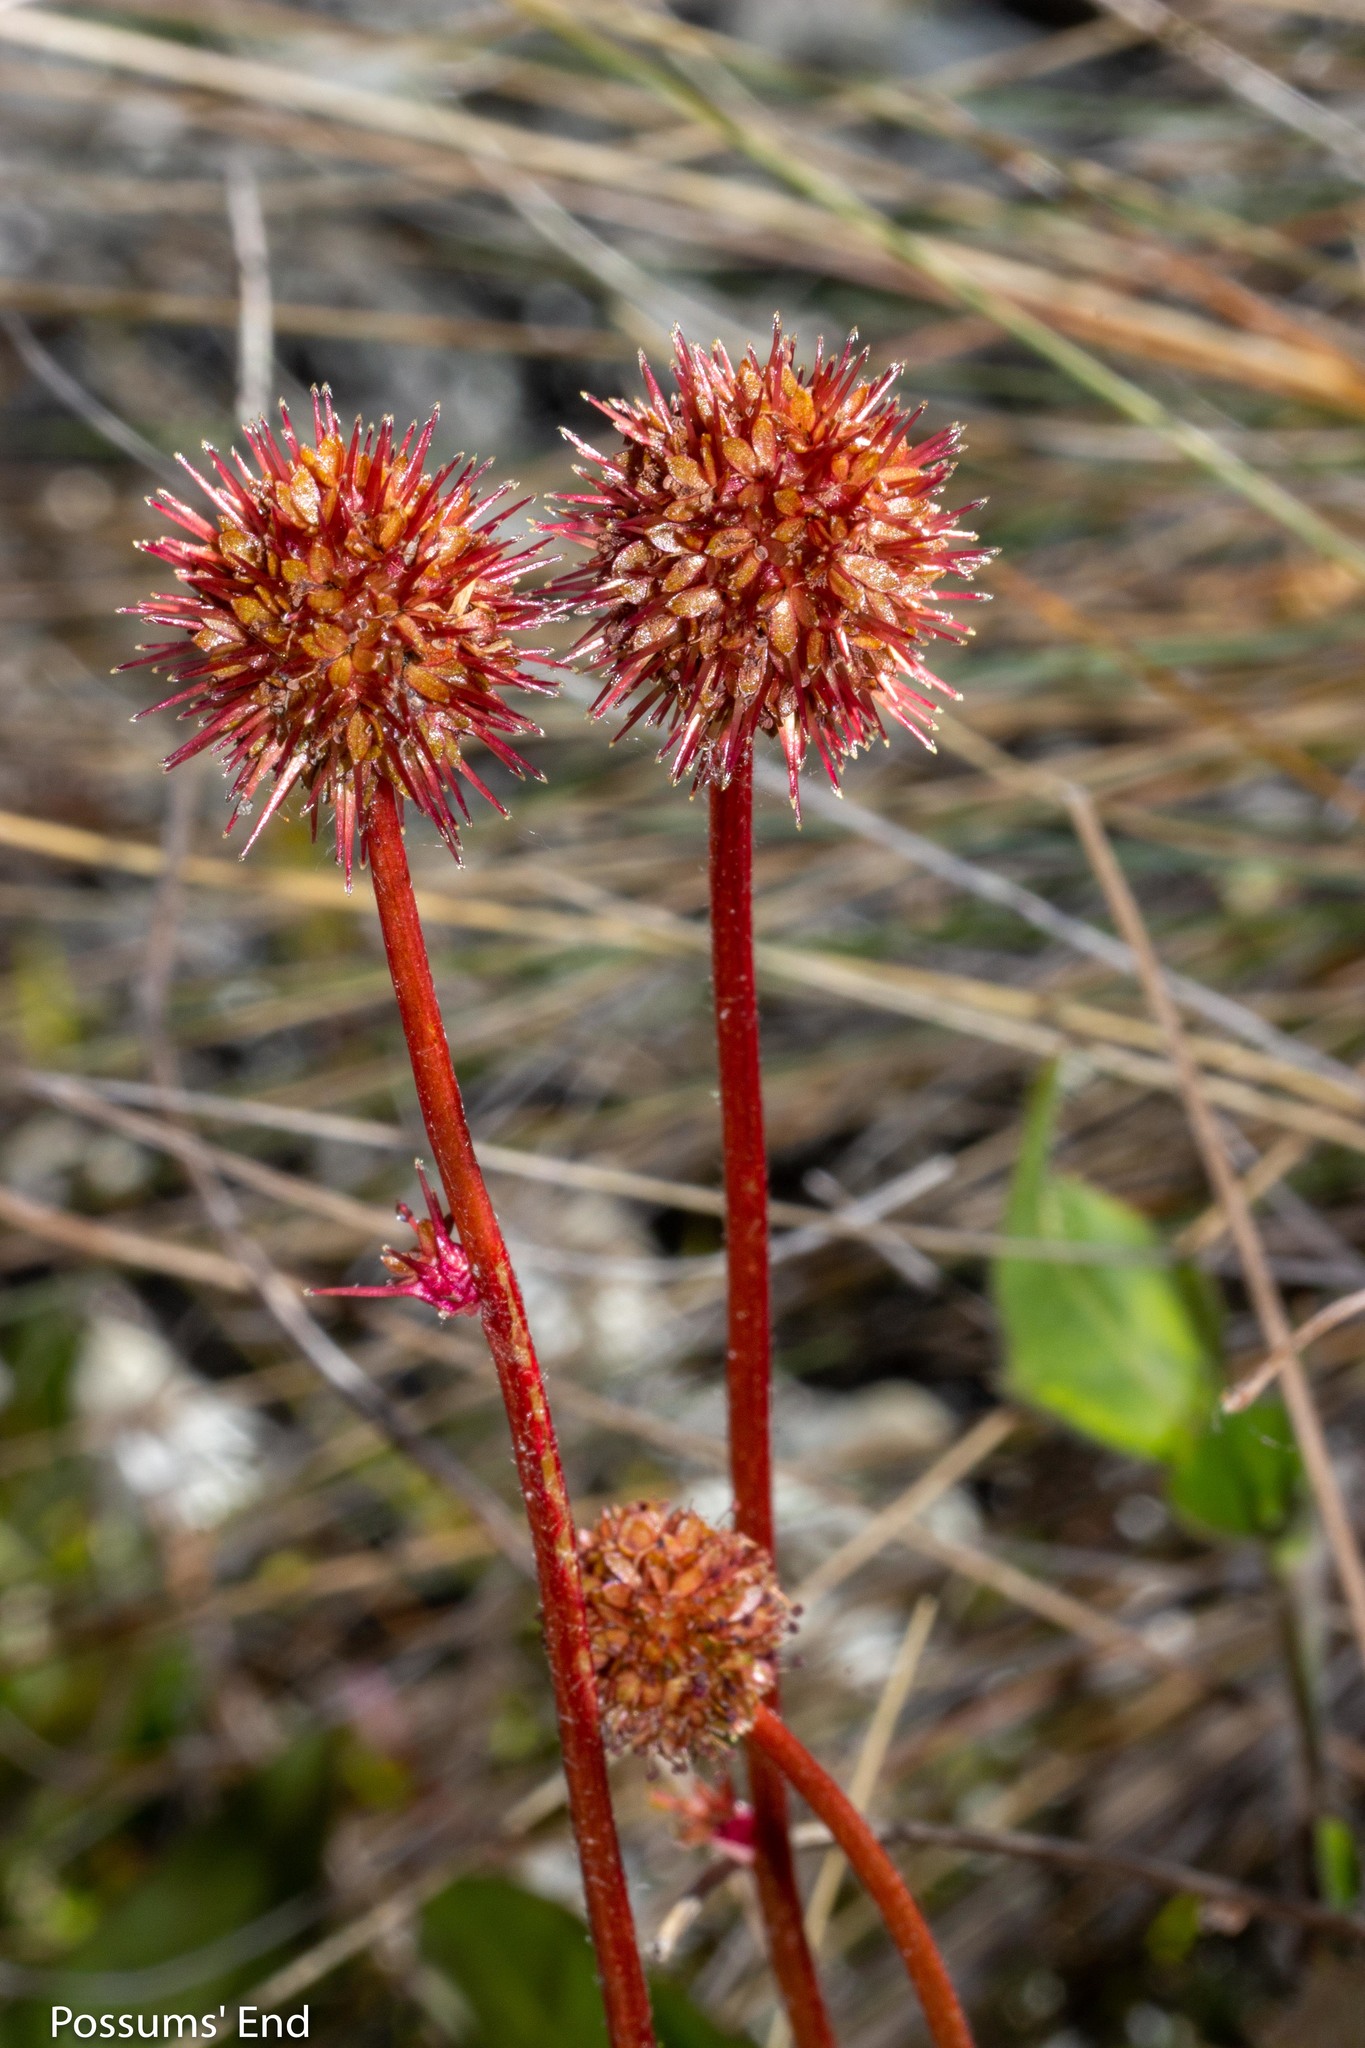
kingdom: Plantae
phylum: Tracheophyta
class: Magnoliopsida
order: Rosales
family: Rosaceae
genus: Acaena
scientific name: Acaena saccaticupula
